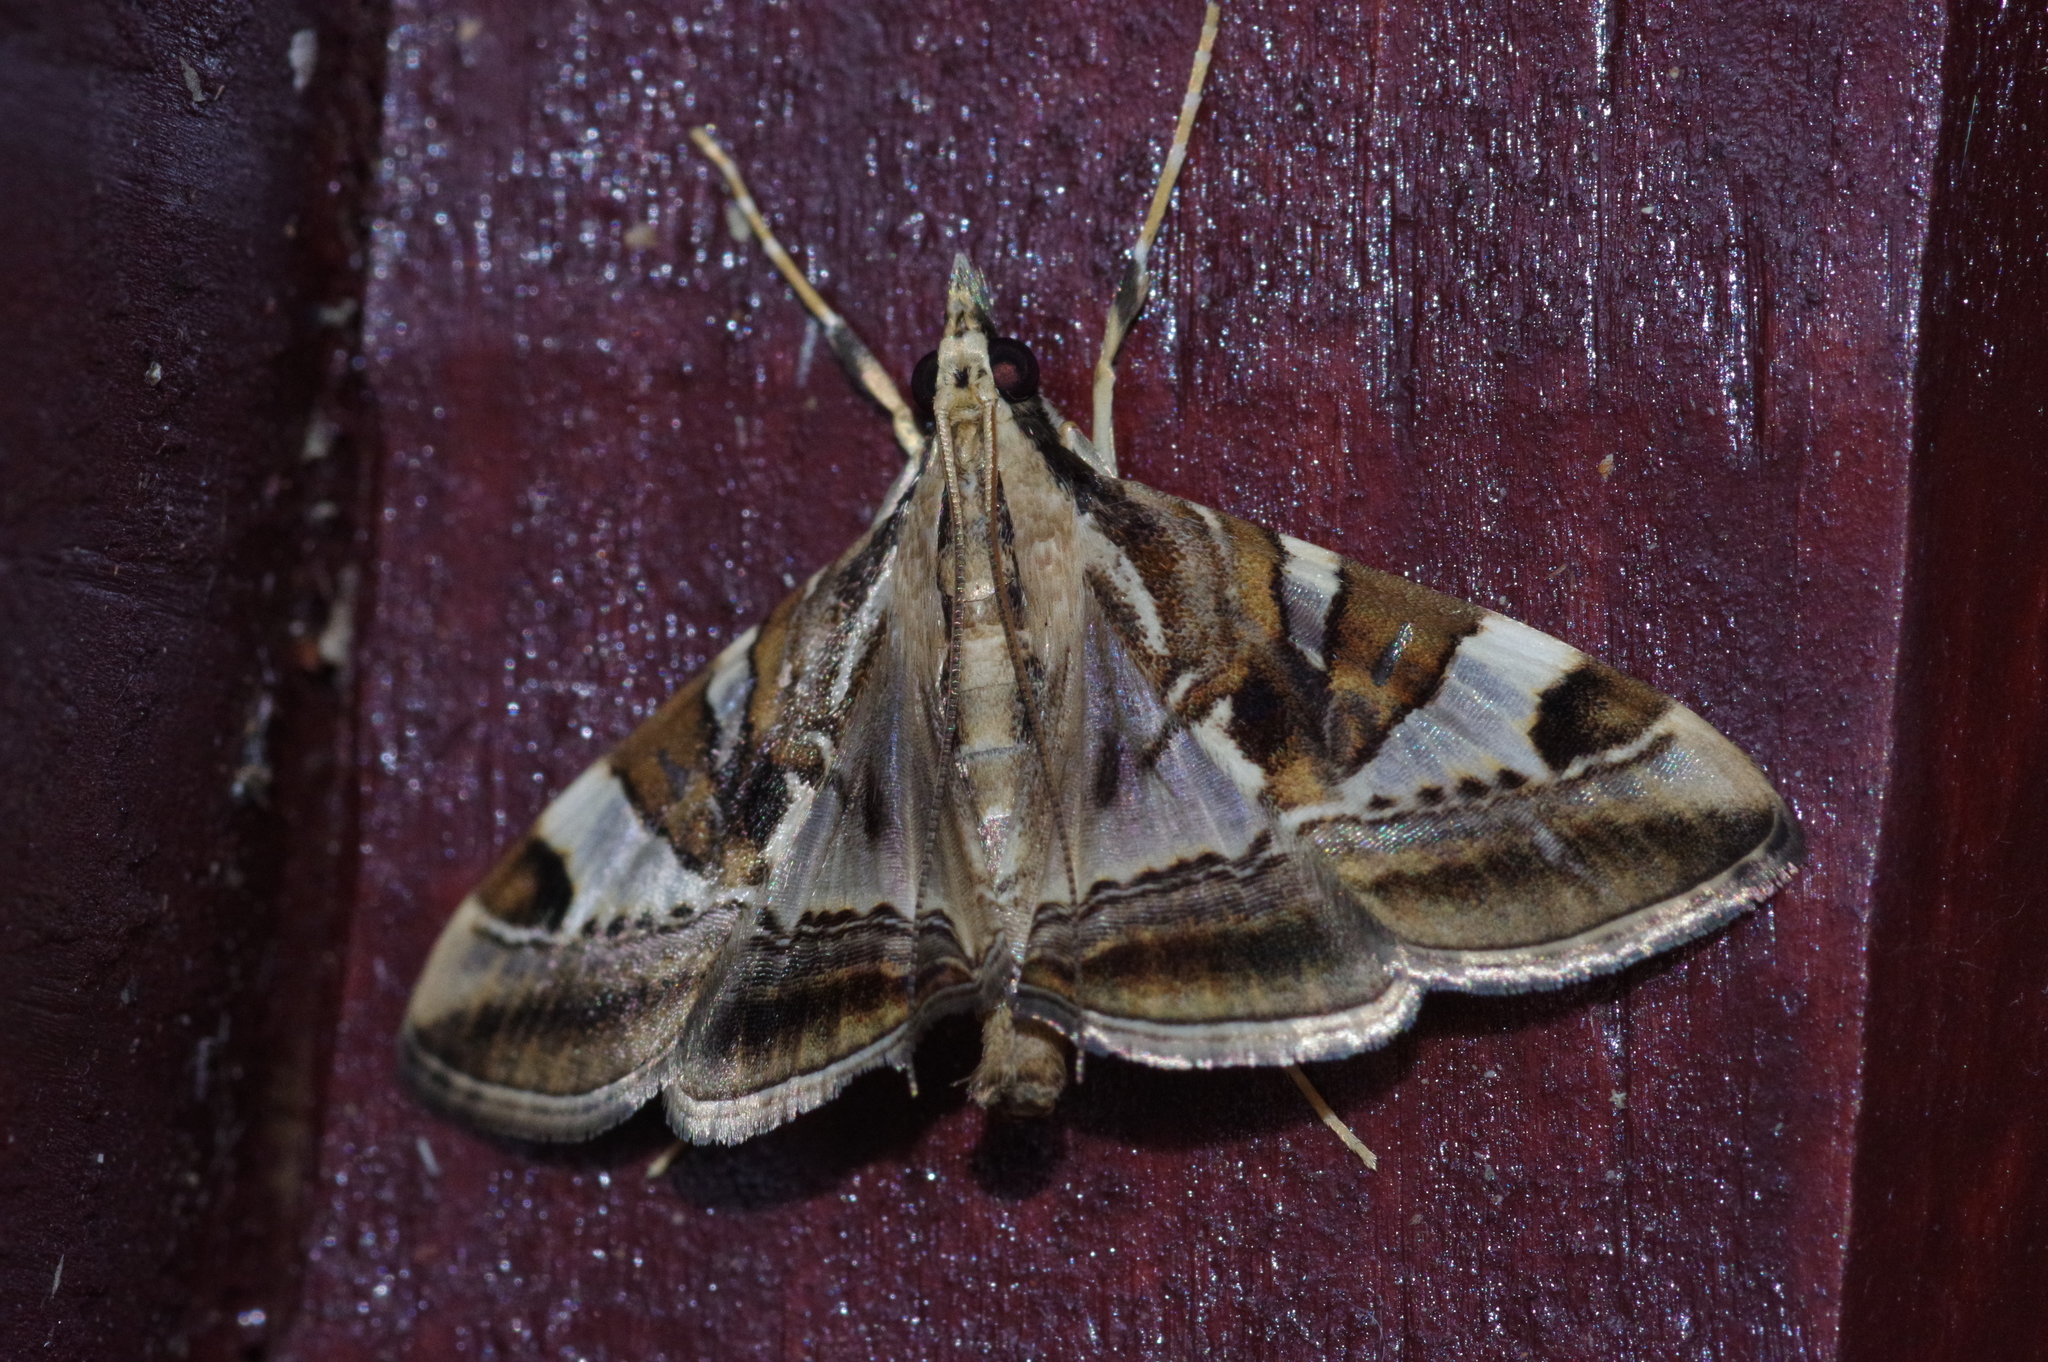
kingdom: Animalia
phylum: Arthropoda
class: Insecta
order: Lepidoptera
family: Crambidae
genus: Agrioglypta
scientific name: Agrioglypta
